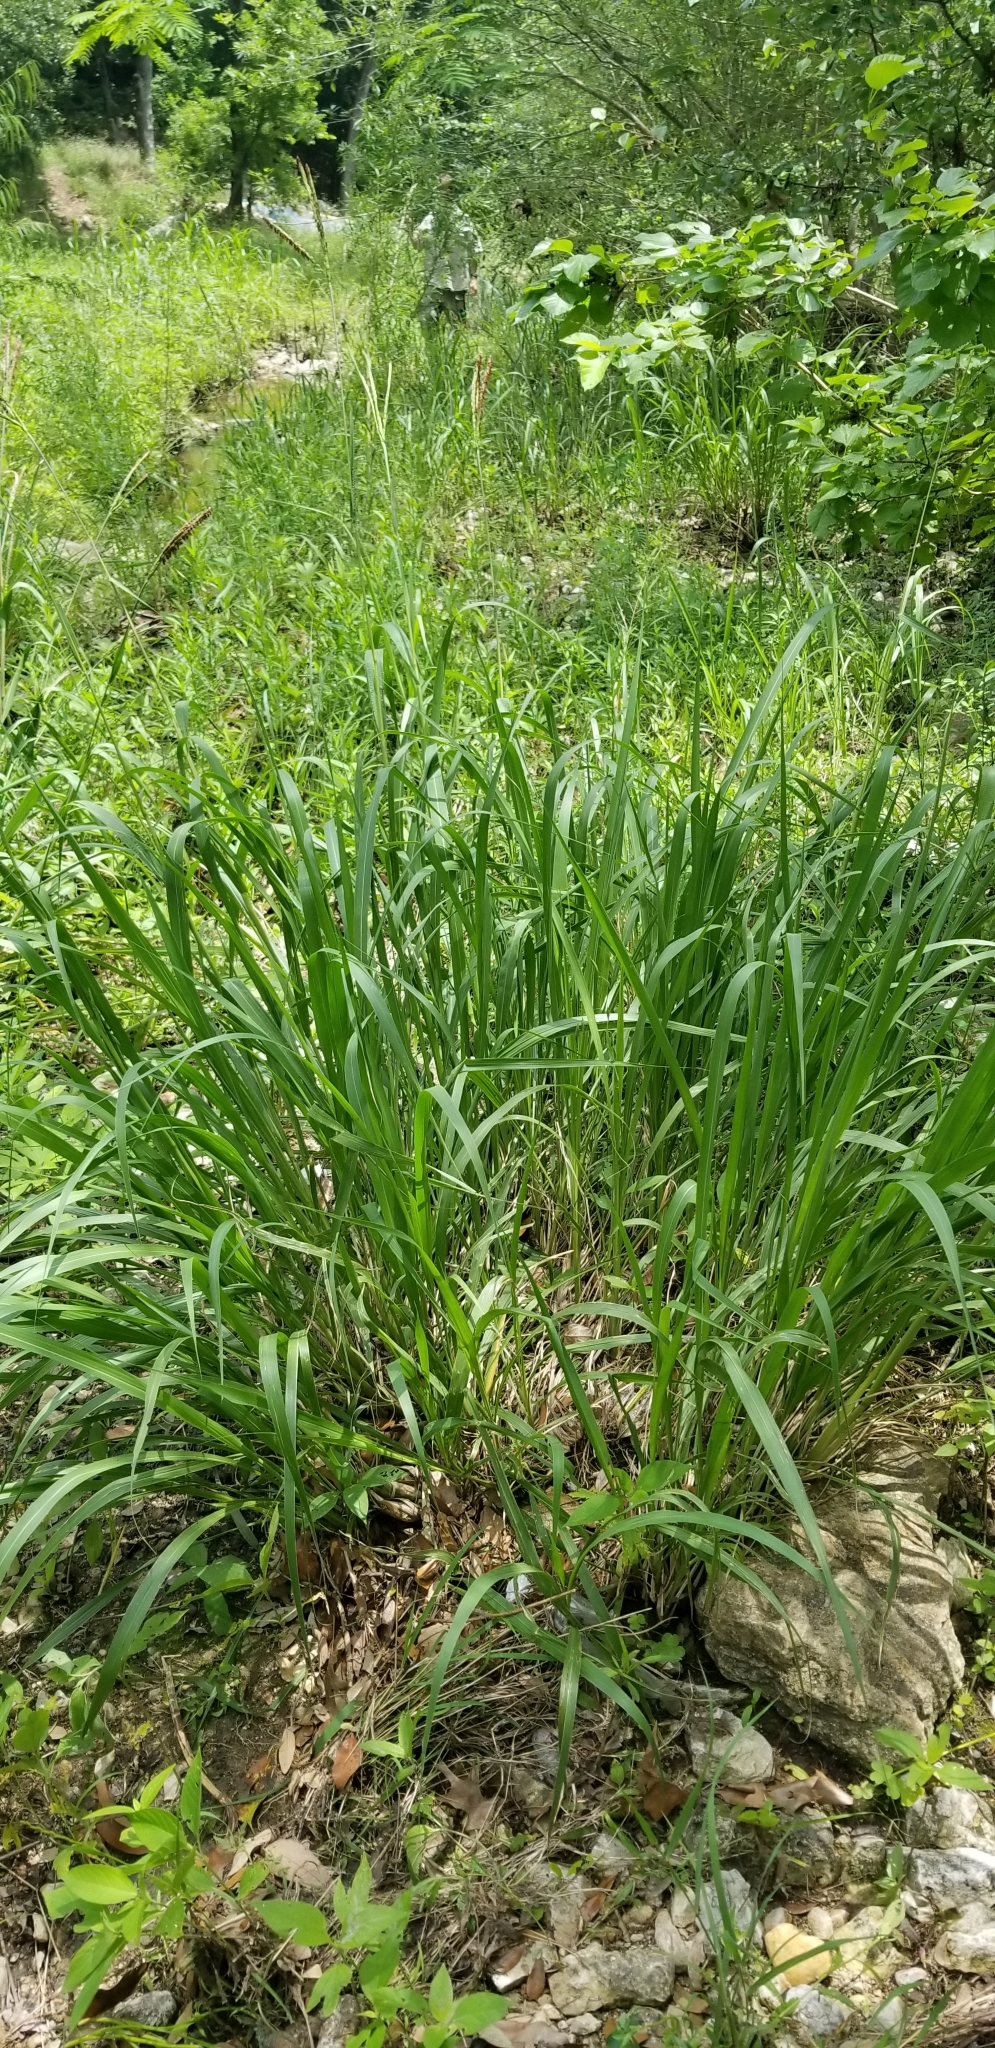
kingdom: Plantae
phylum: Tracheophyta
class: Liliopsida
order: Poales
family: Poaceae
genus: Tripsacum
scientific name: Tripsacum dactyloides
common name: Buffalo-grass
